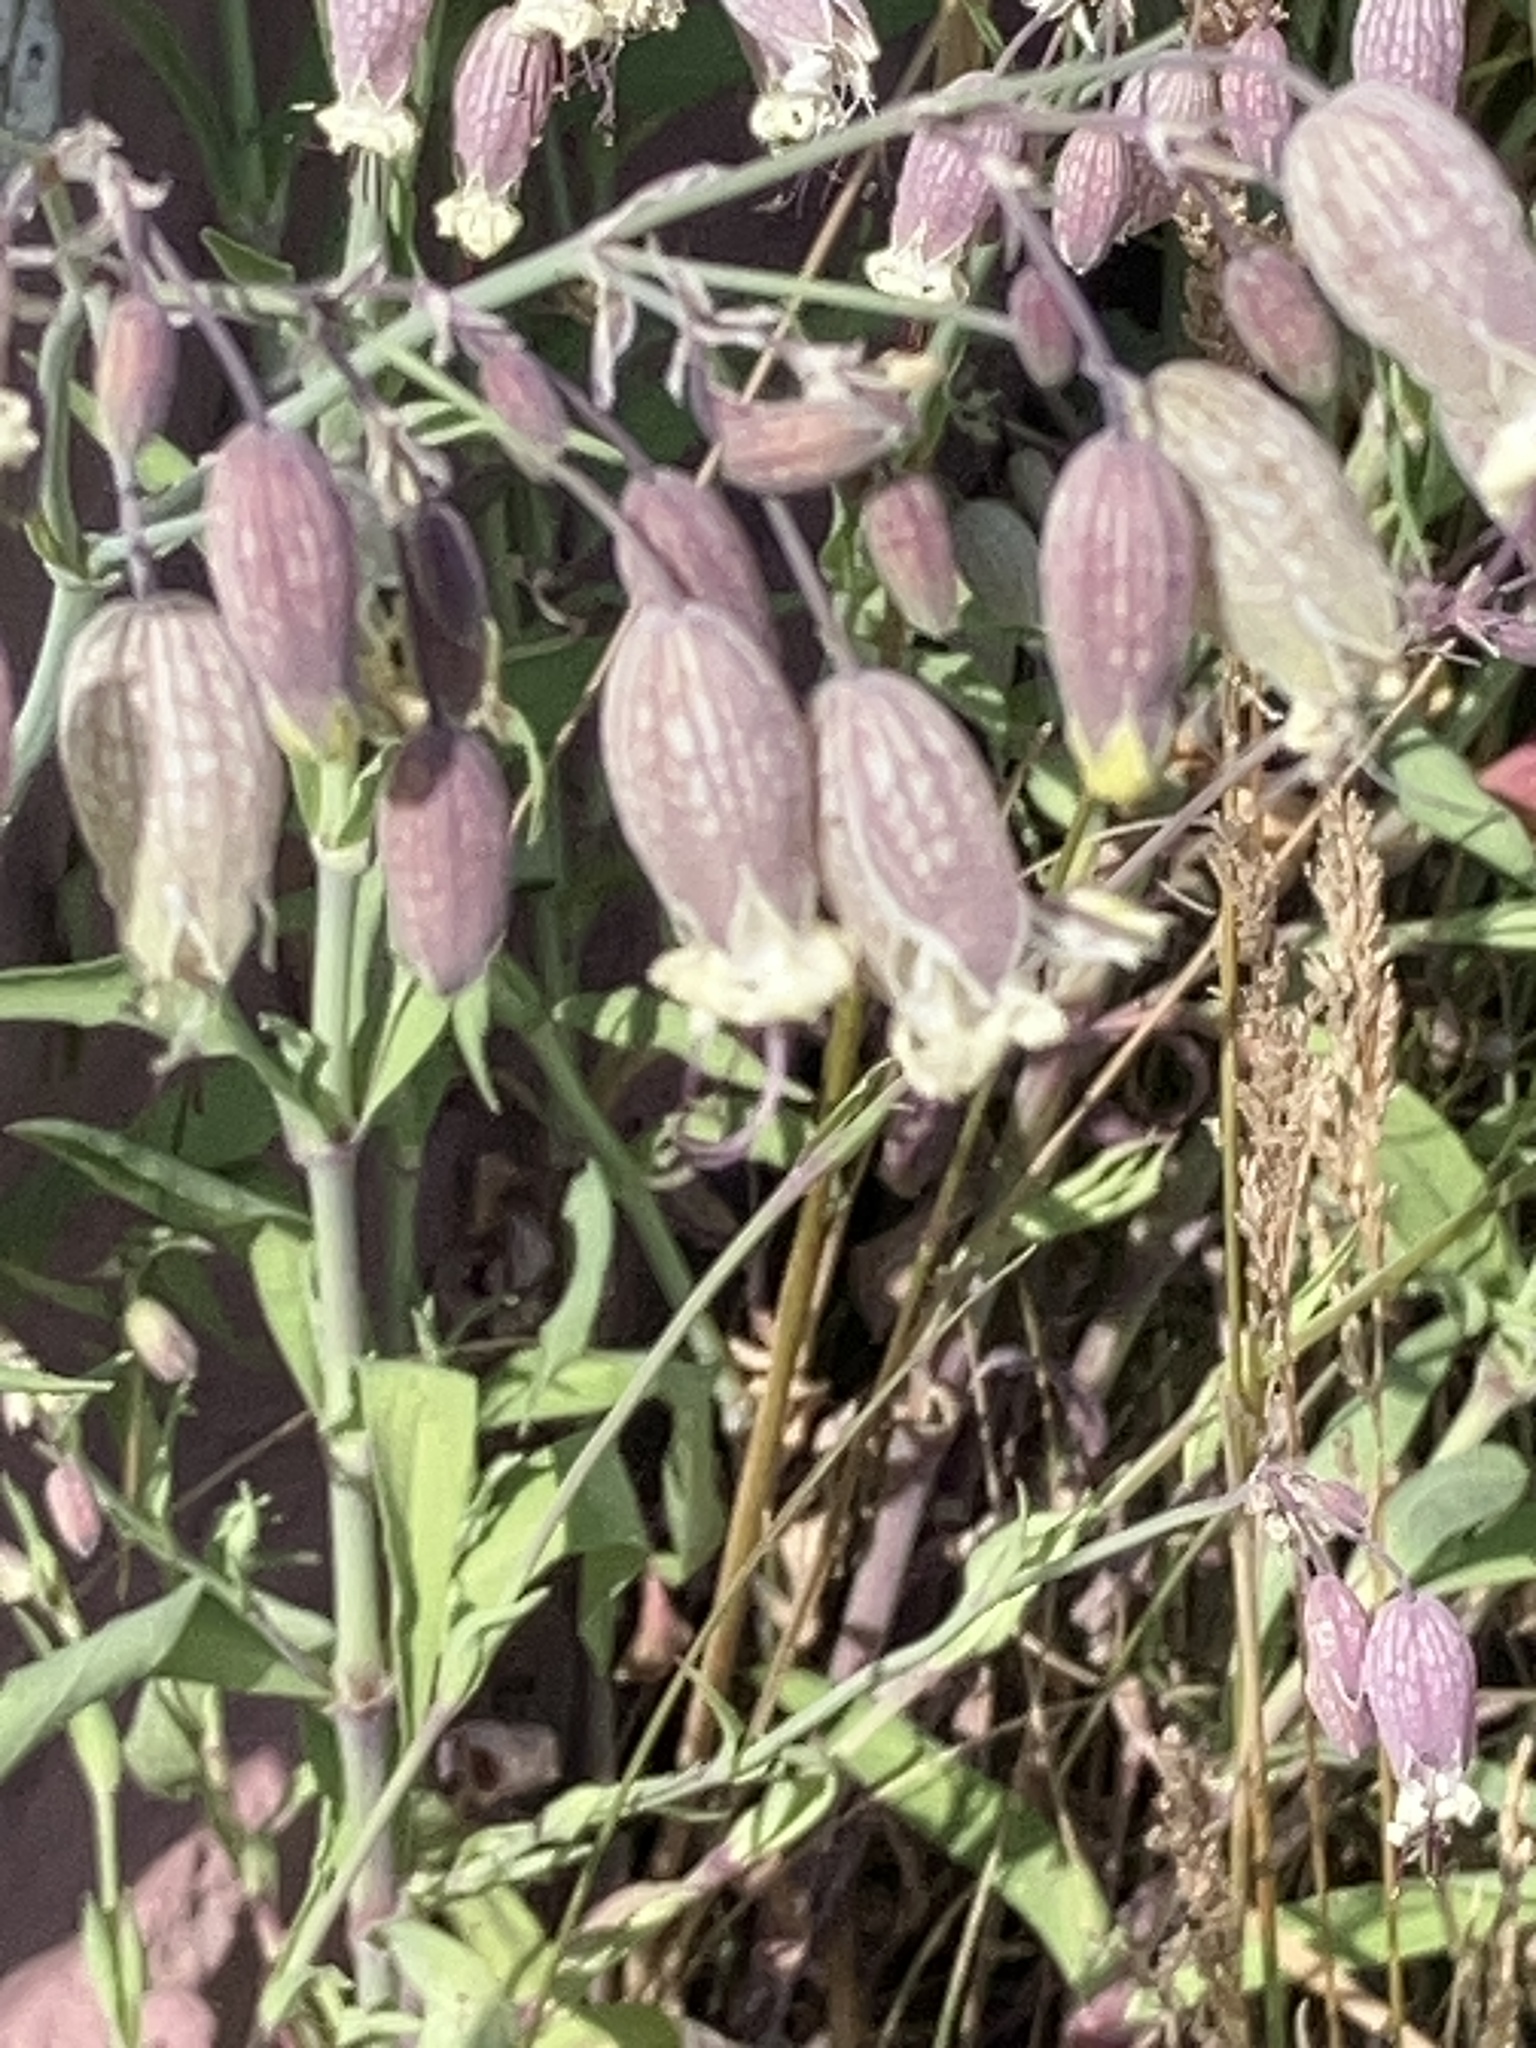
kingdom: Plantae
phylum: Tracheophyta
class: Magnoliopsida
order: Caryophyllales
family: Caryophyllaceae
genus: Silene
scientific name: Silene vulgaris
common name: Bladder campion
